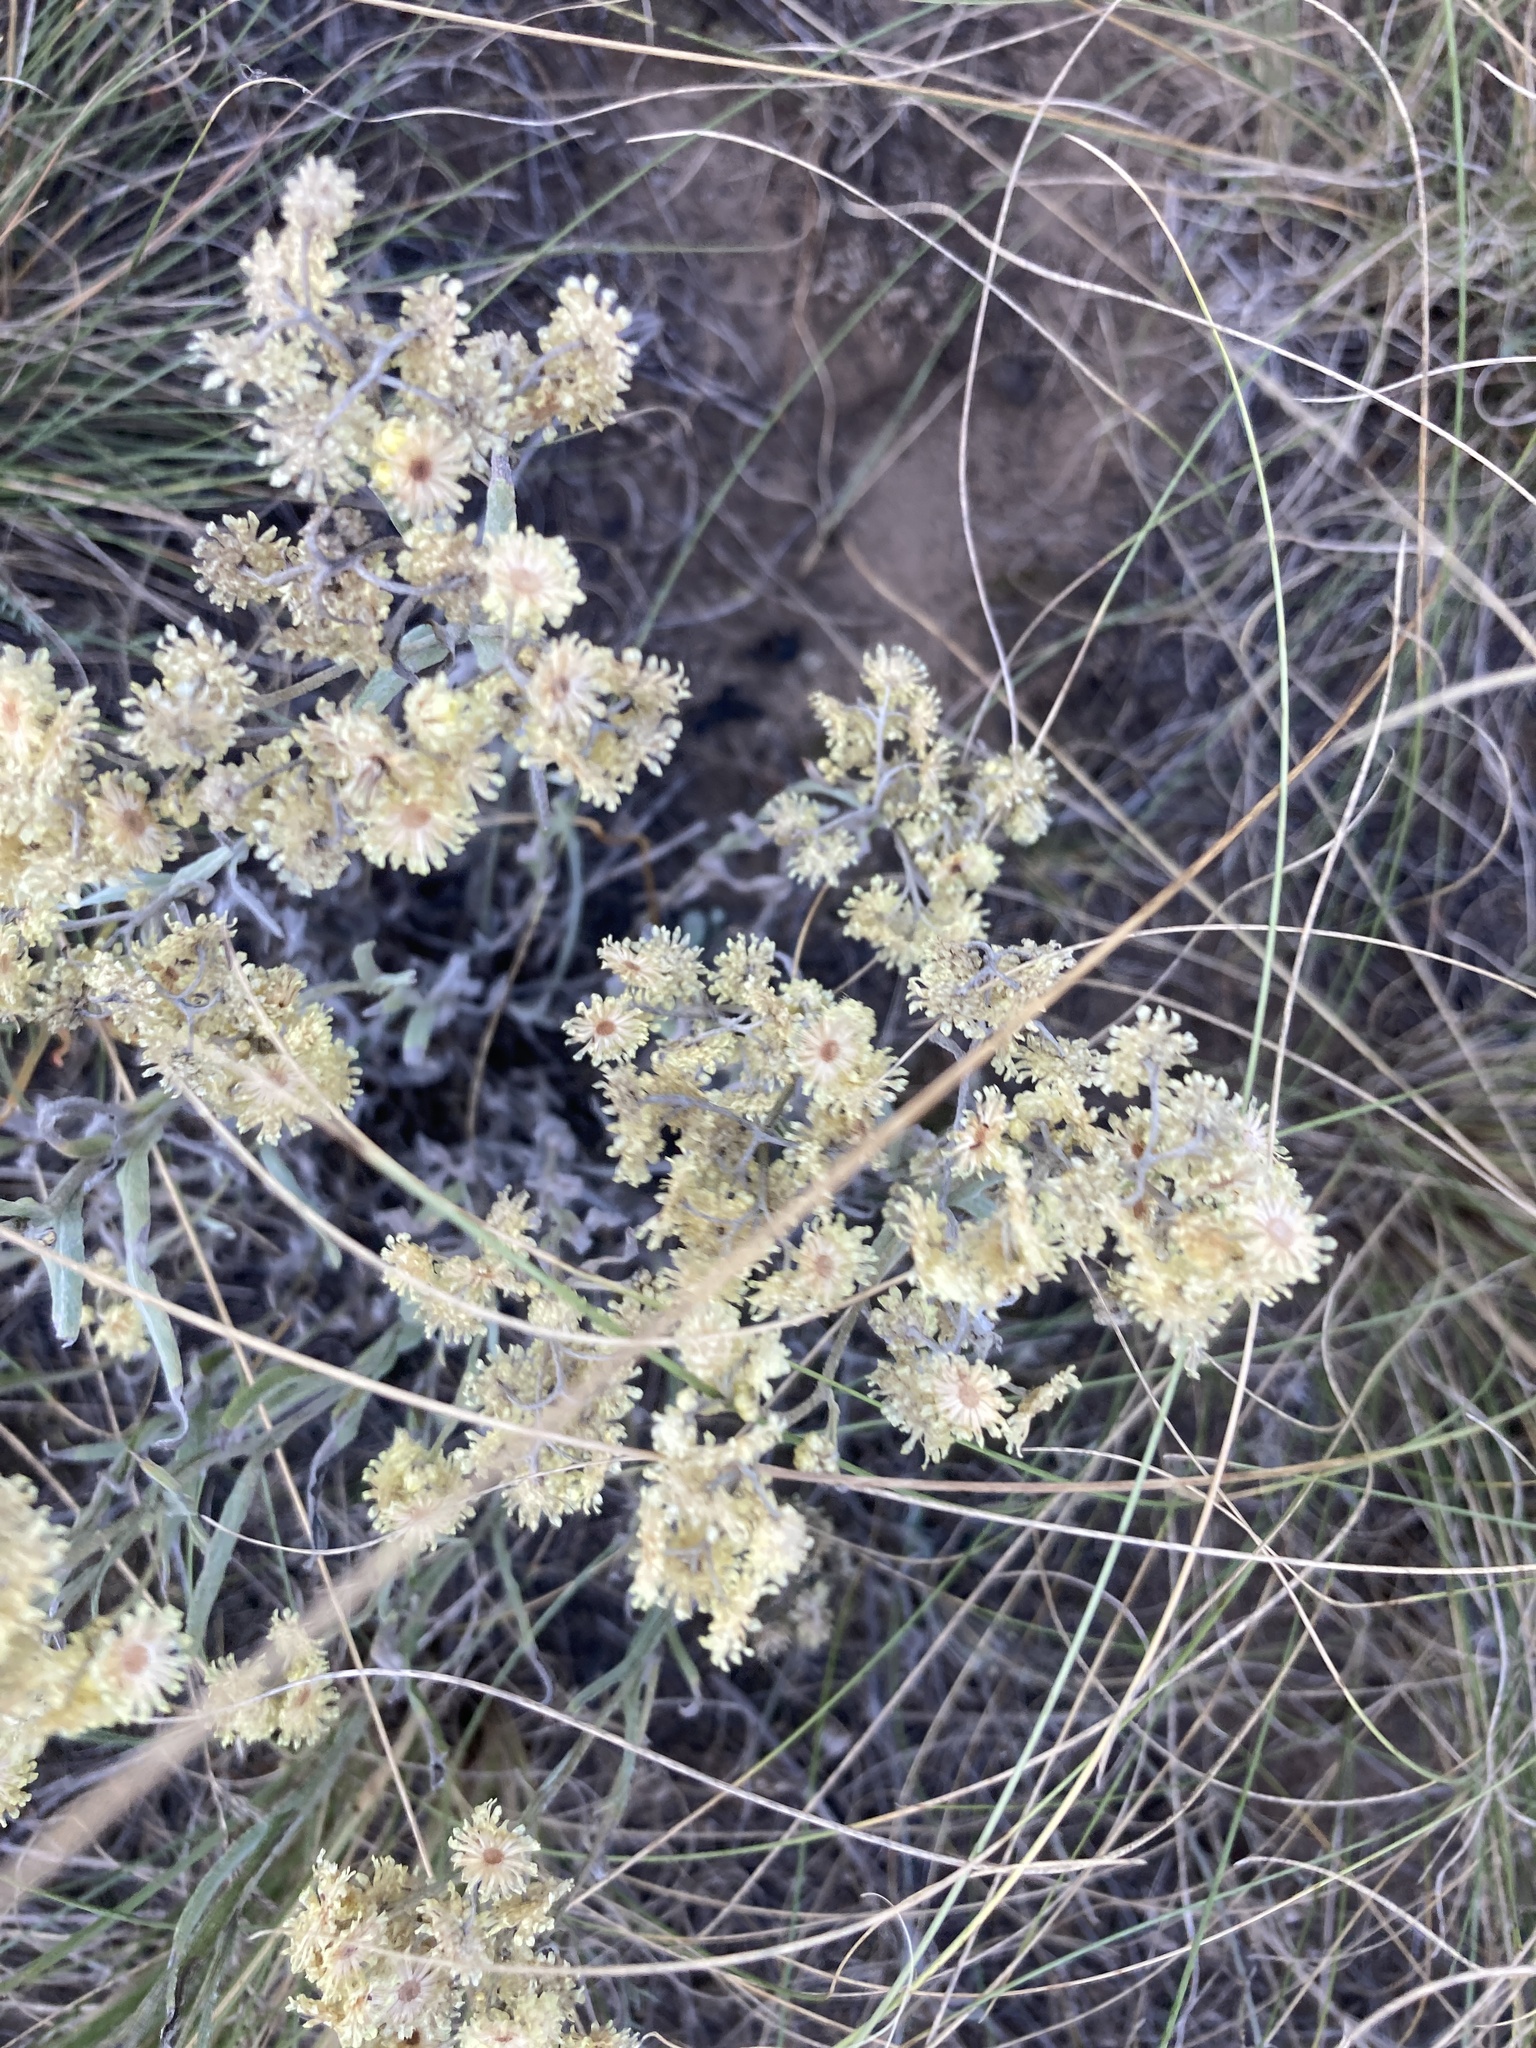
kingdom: Plantae
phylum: Tracheophyta
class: Magnoliopsida
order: Asterales
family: Asteraceae
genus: Helichrysum
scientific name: Helichrysum arenarium
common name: Strawflower
